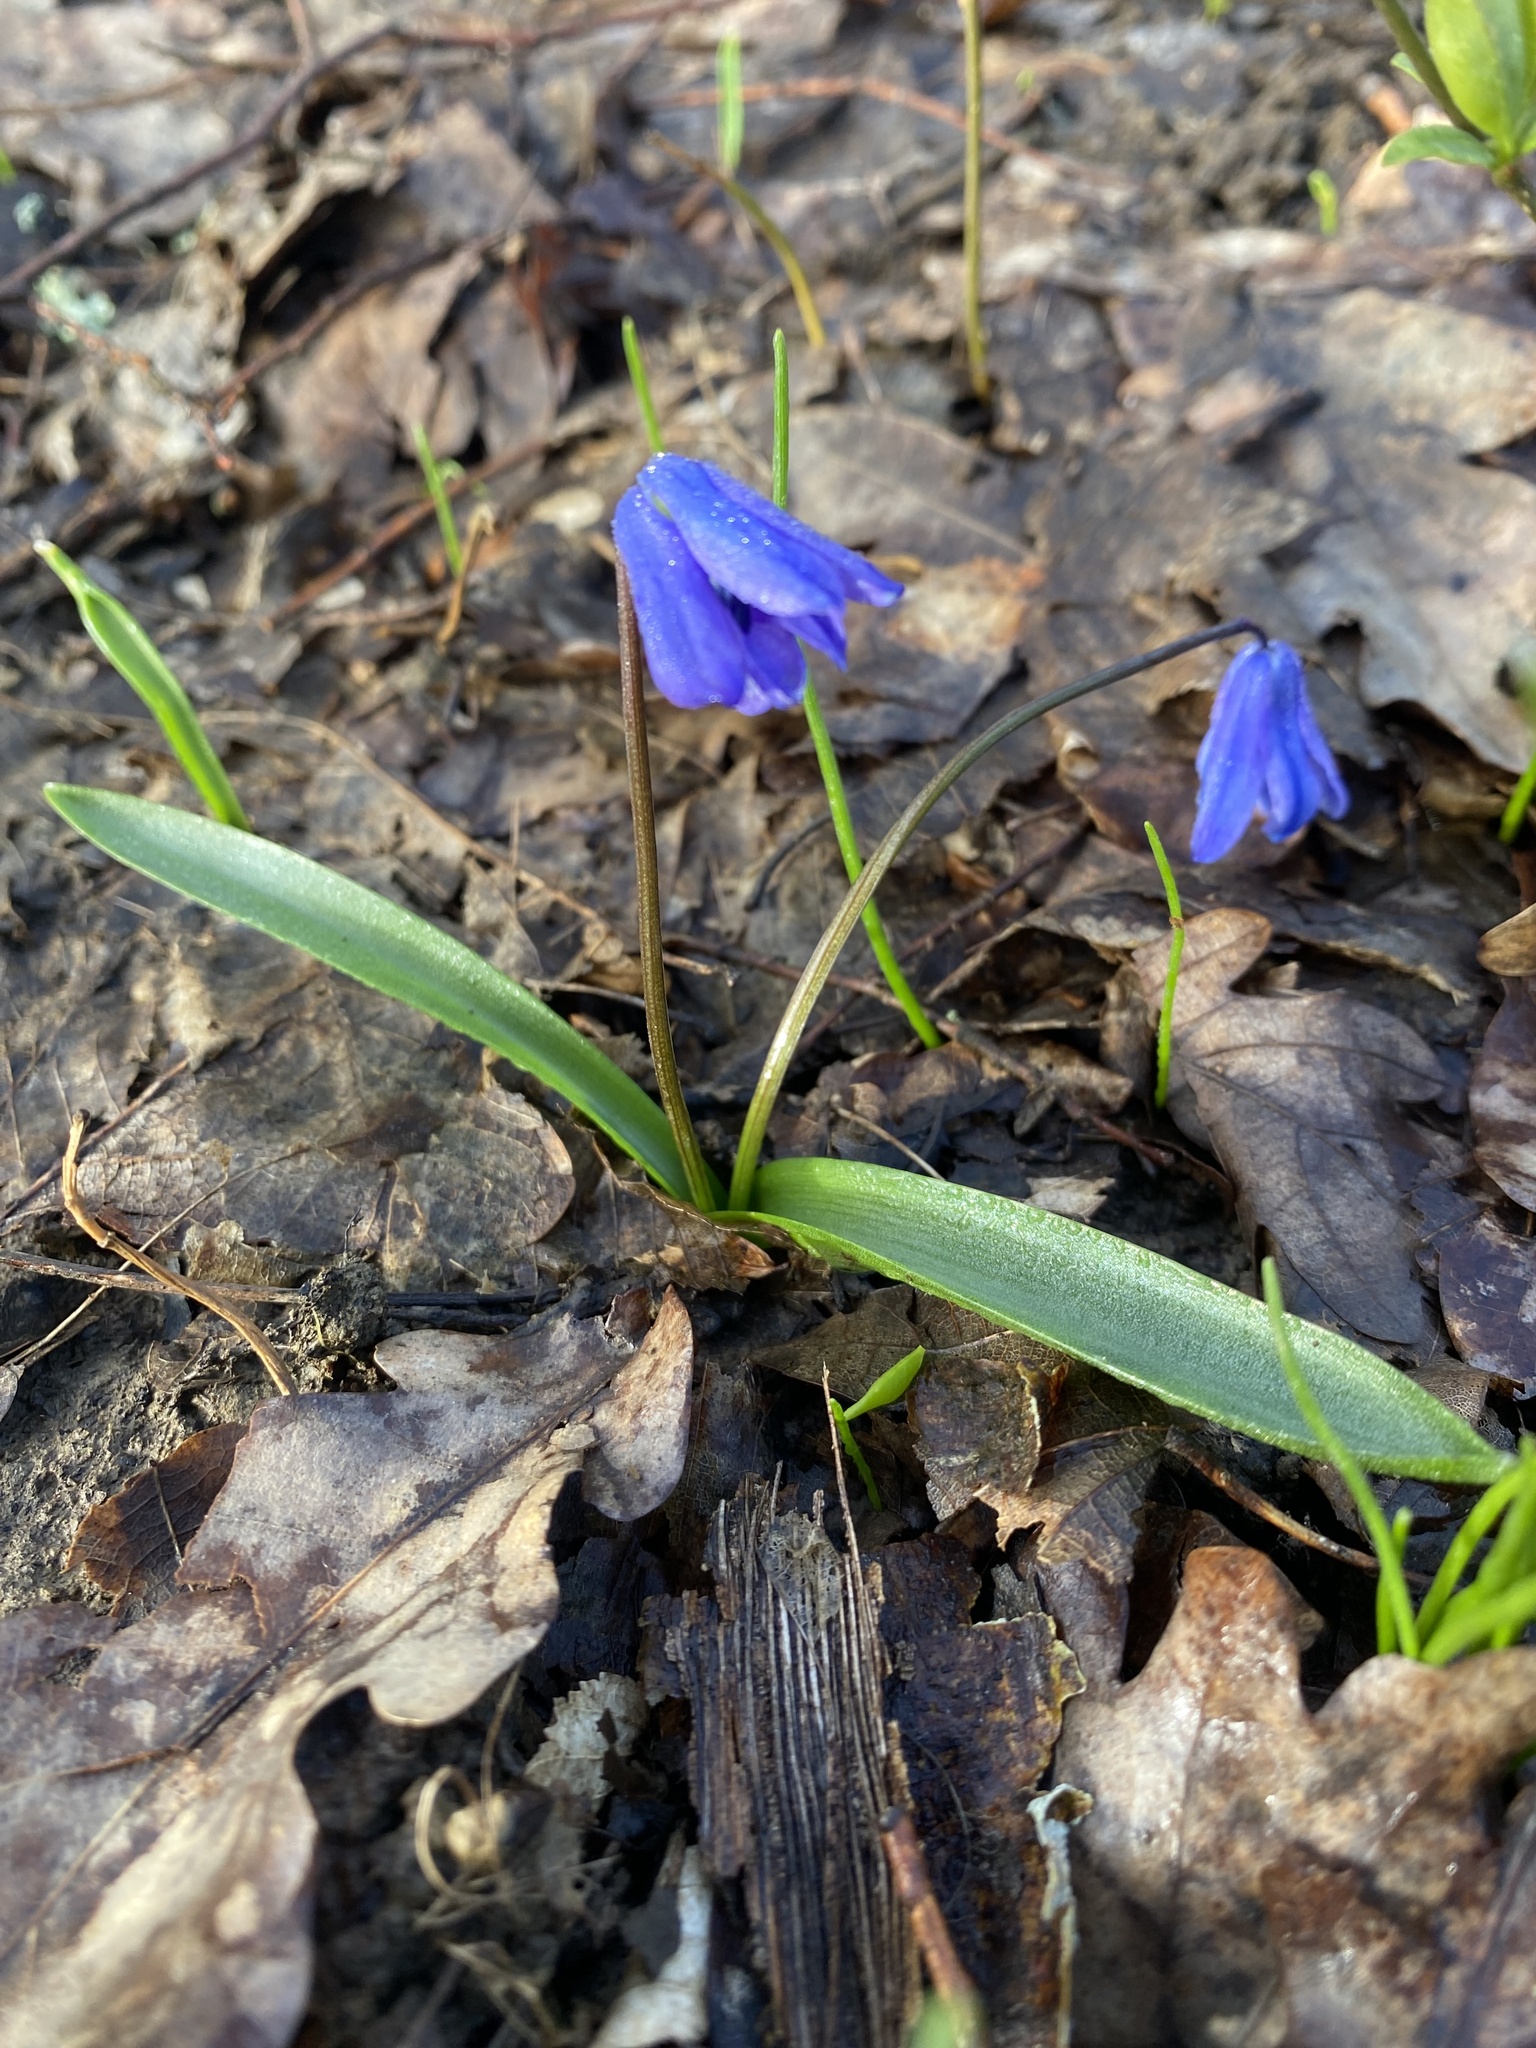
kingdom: Plantae
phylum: Tracheophyta
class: Liliopsida
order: Asparagales
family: Asparagaceae
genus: Scilla
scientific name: Scilla siberica
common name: Siberian squill
